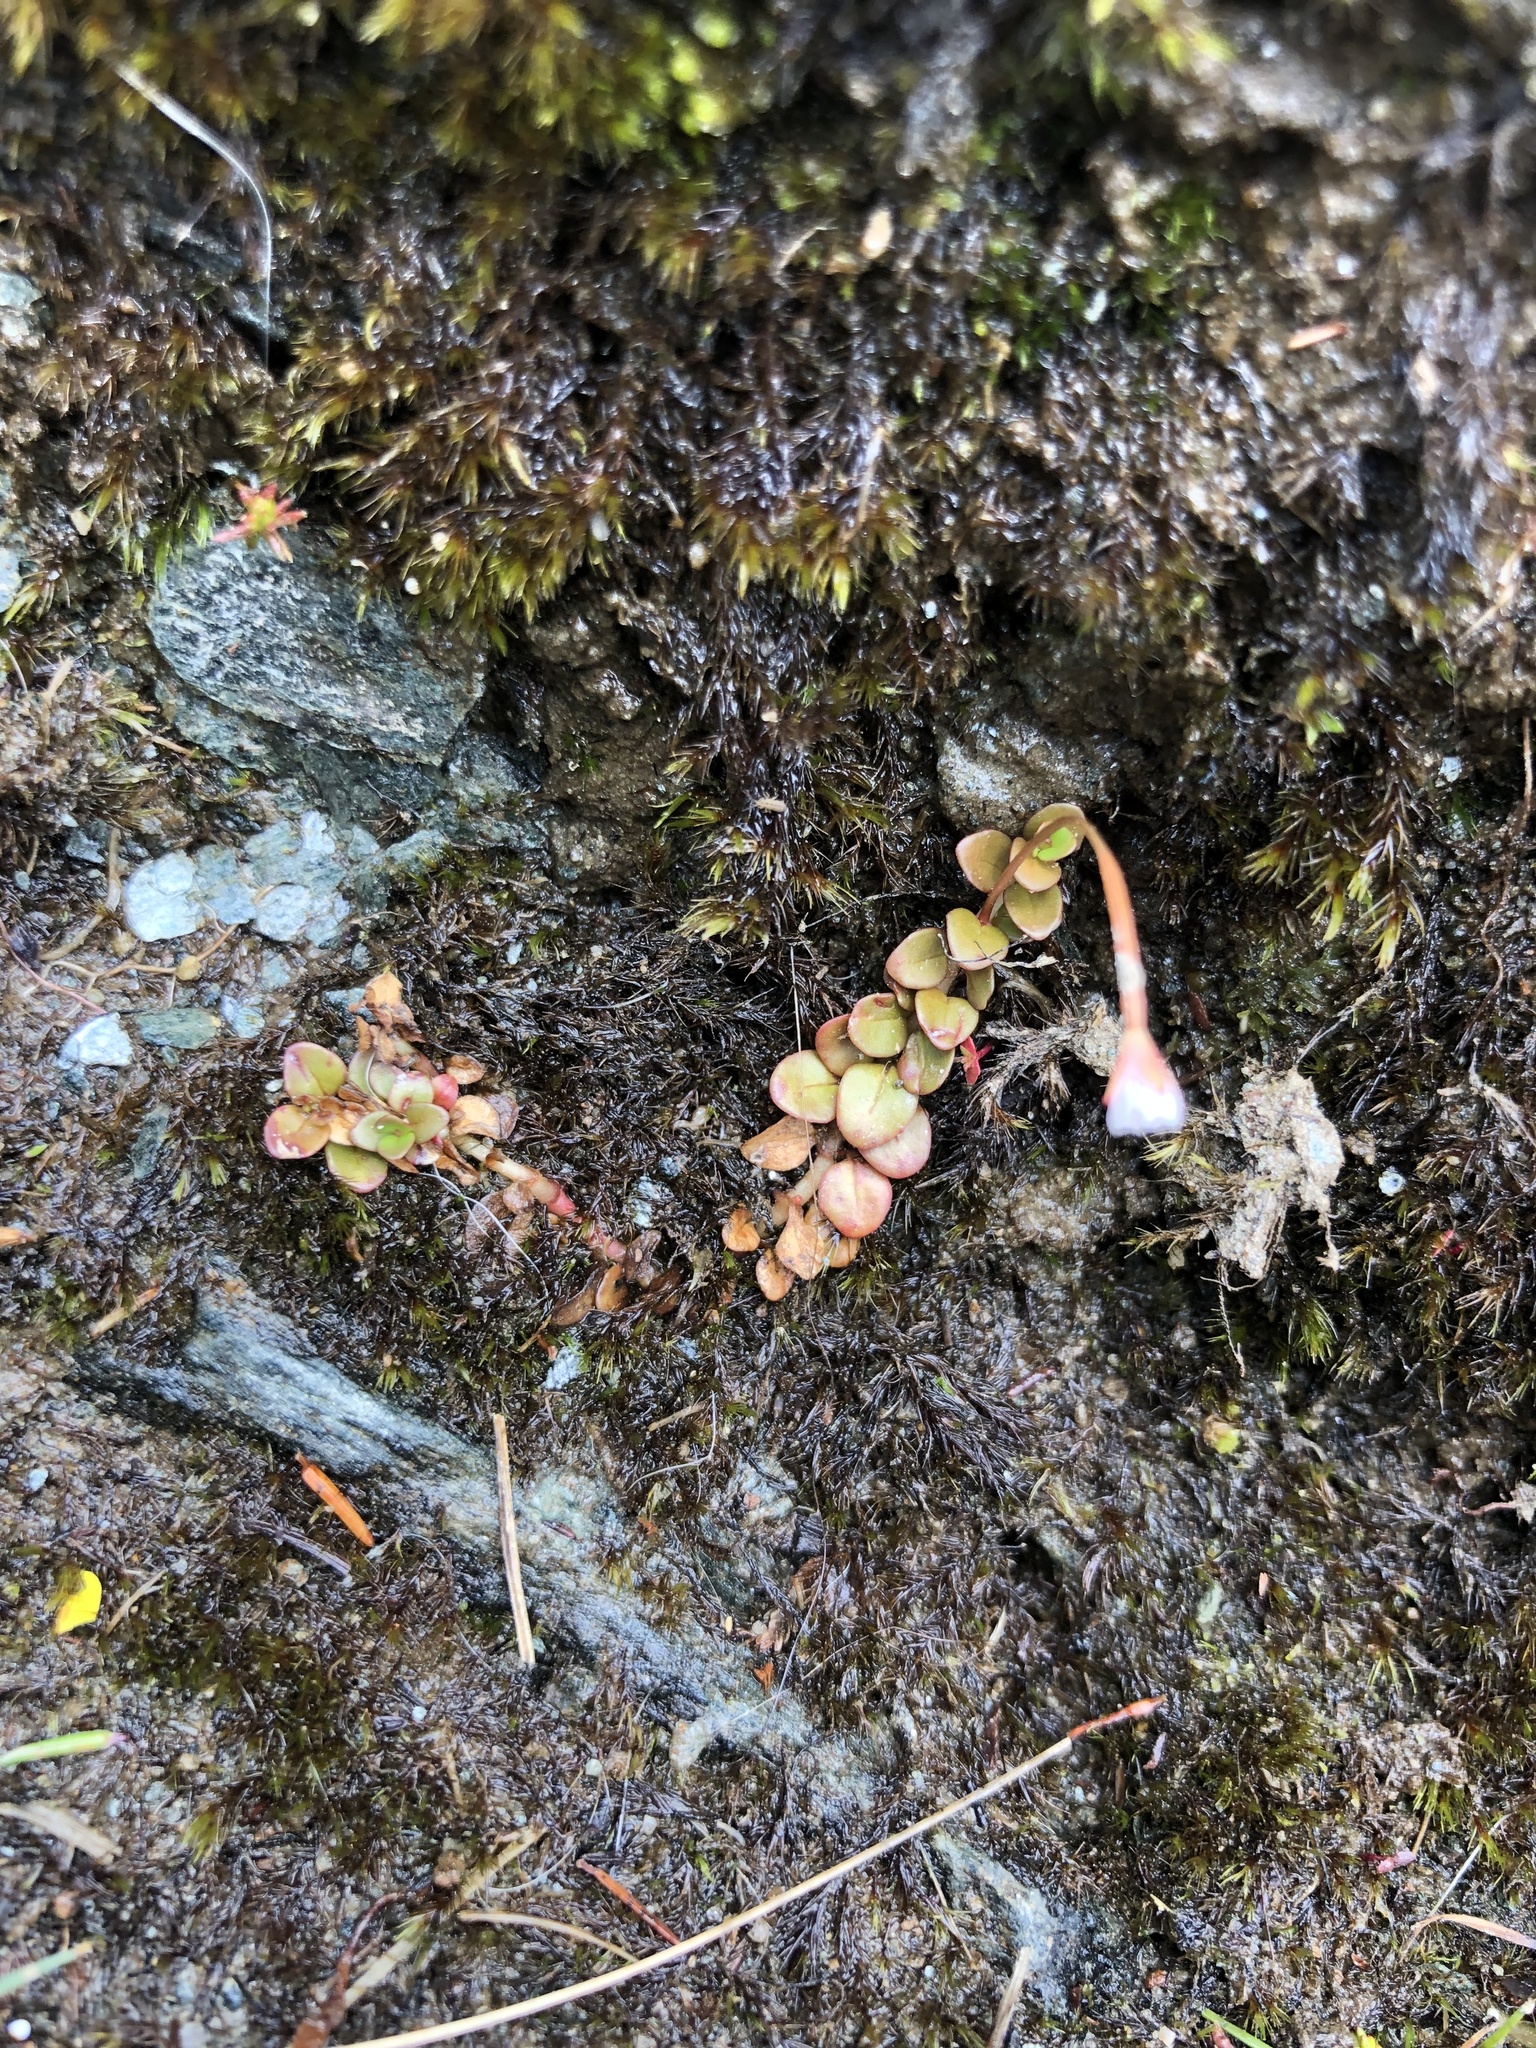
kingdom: Plantae
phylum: Tracheophyta
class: Magnoliopsida
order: Myrtales
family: Onagraceae
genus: Epilobium
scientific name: Epilobium brunnescens
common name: New zealand willowherb
